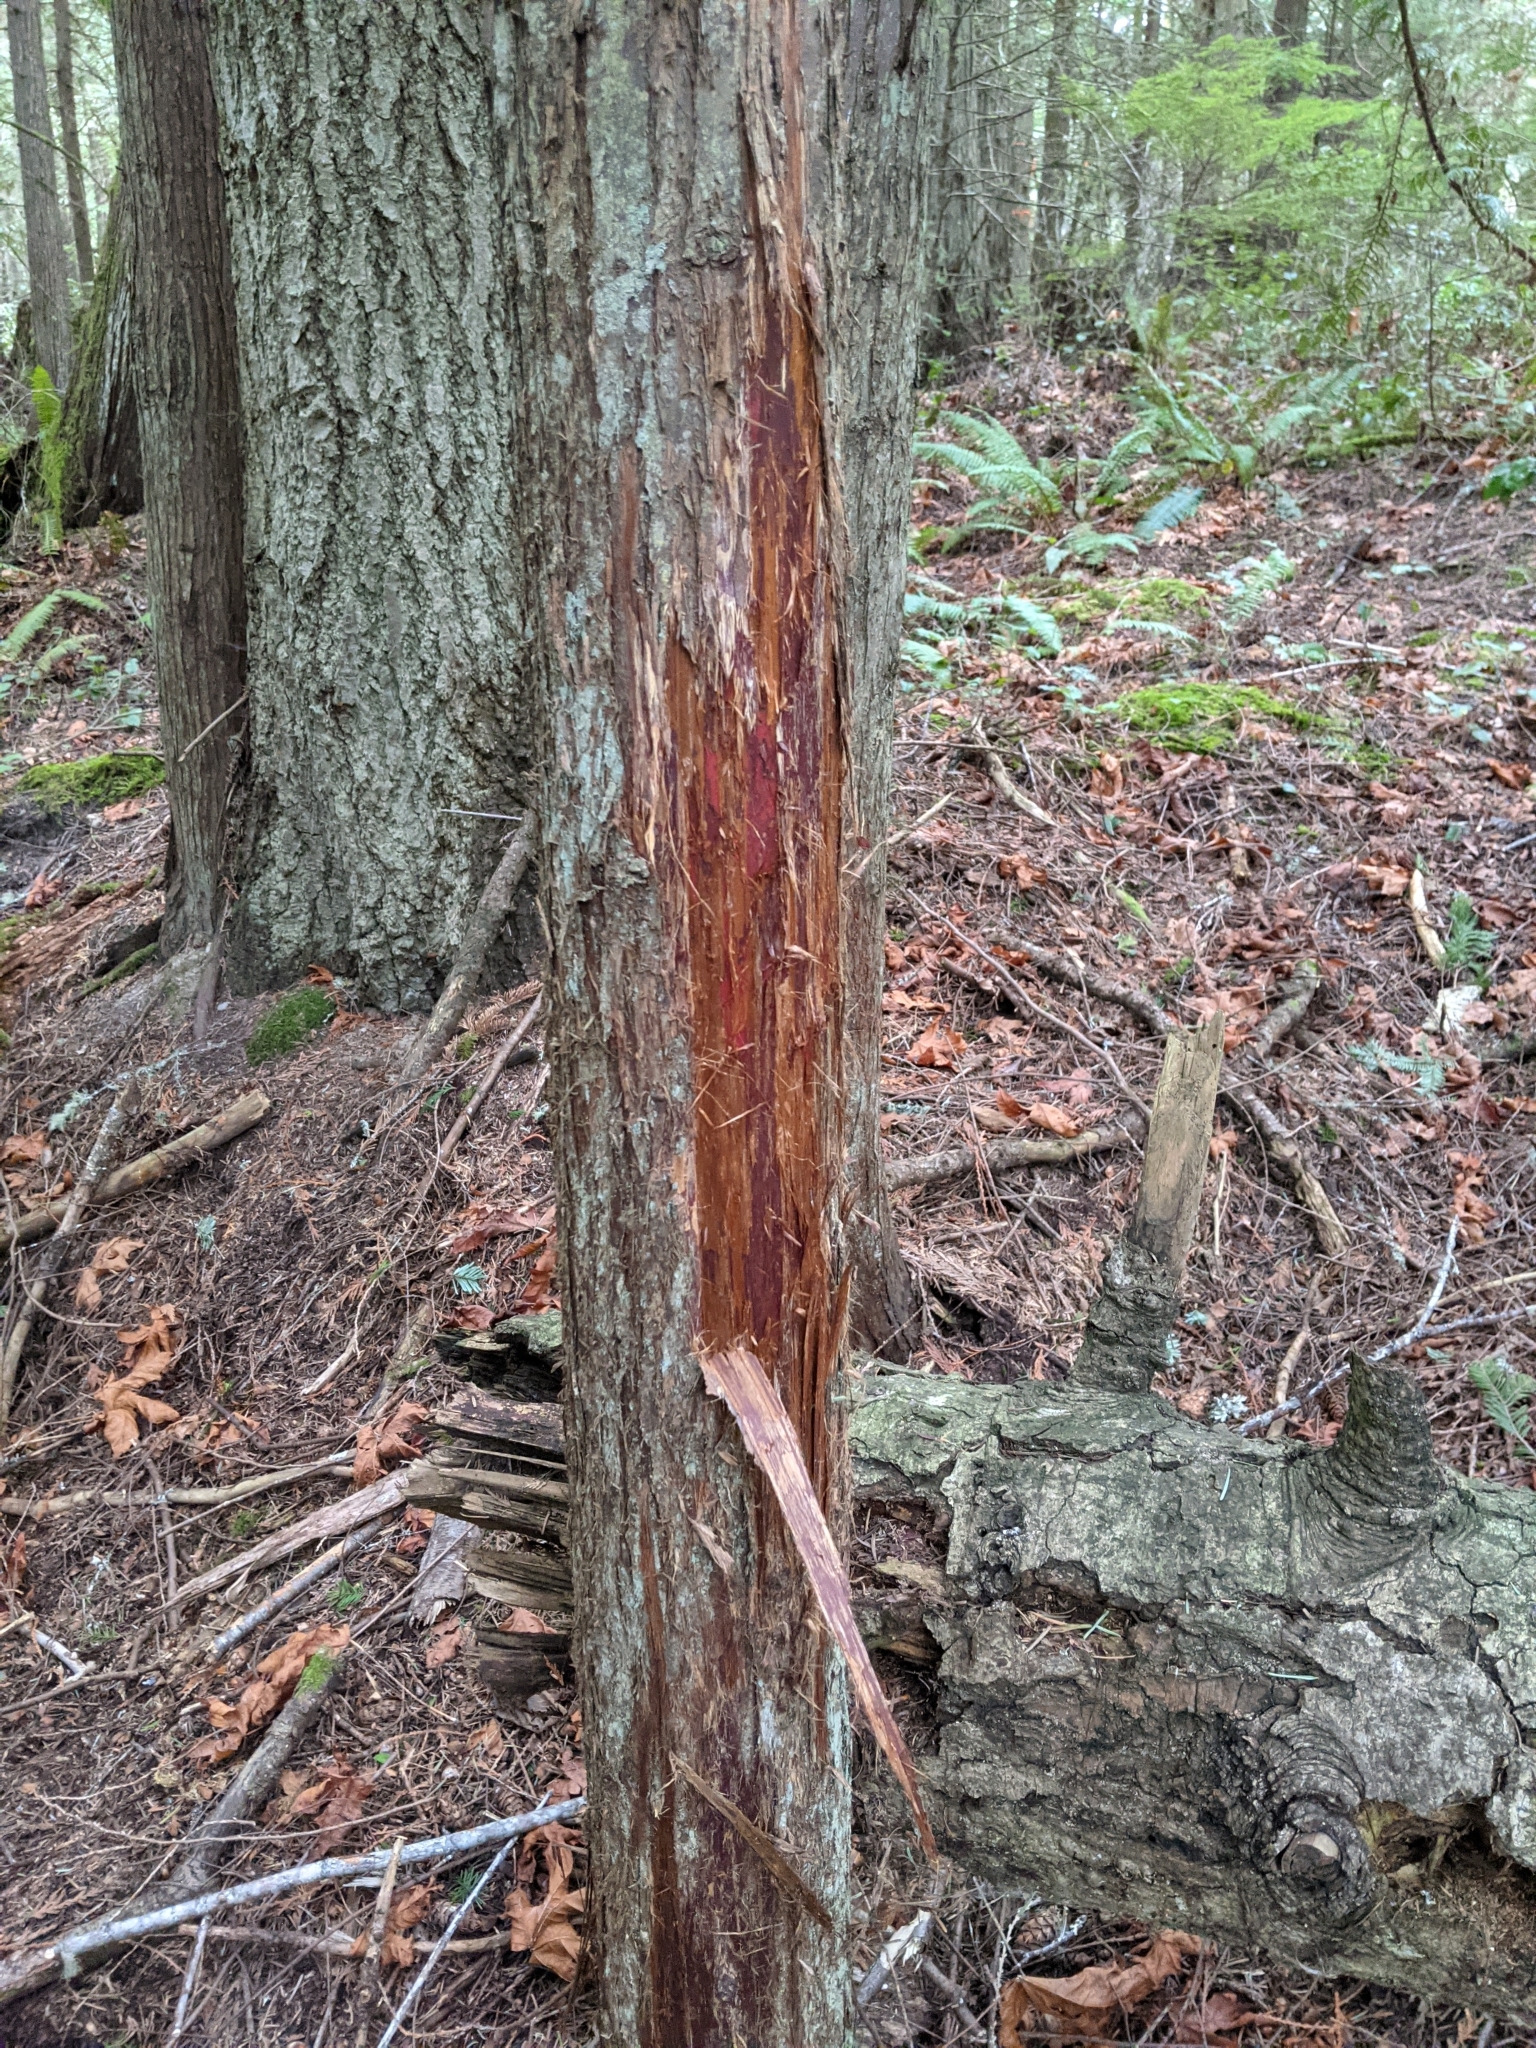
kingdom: Plantae
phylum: Tracheophyta
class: Pinopsida
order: Pinales
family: Cupressaceae
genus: Thuja
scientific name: Thuja plicata
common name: Western red-cedar
